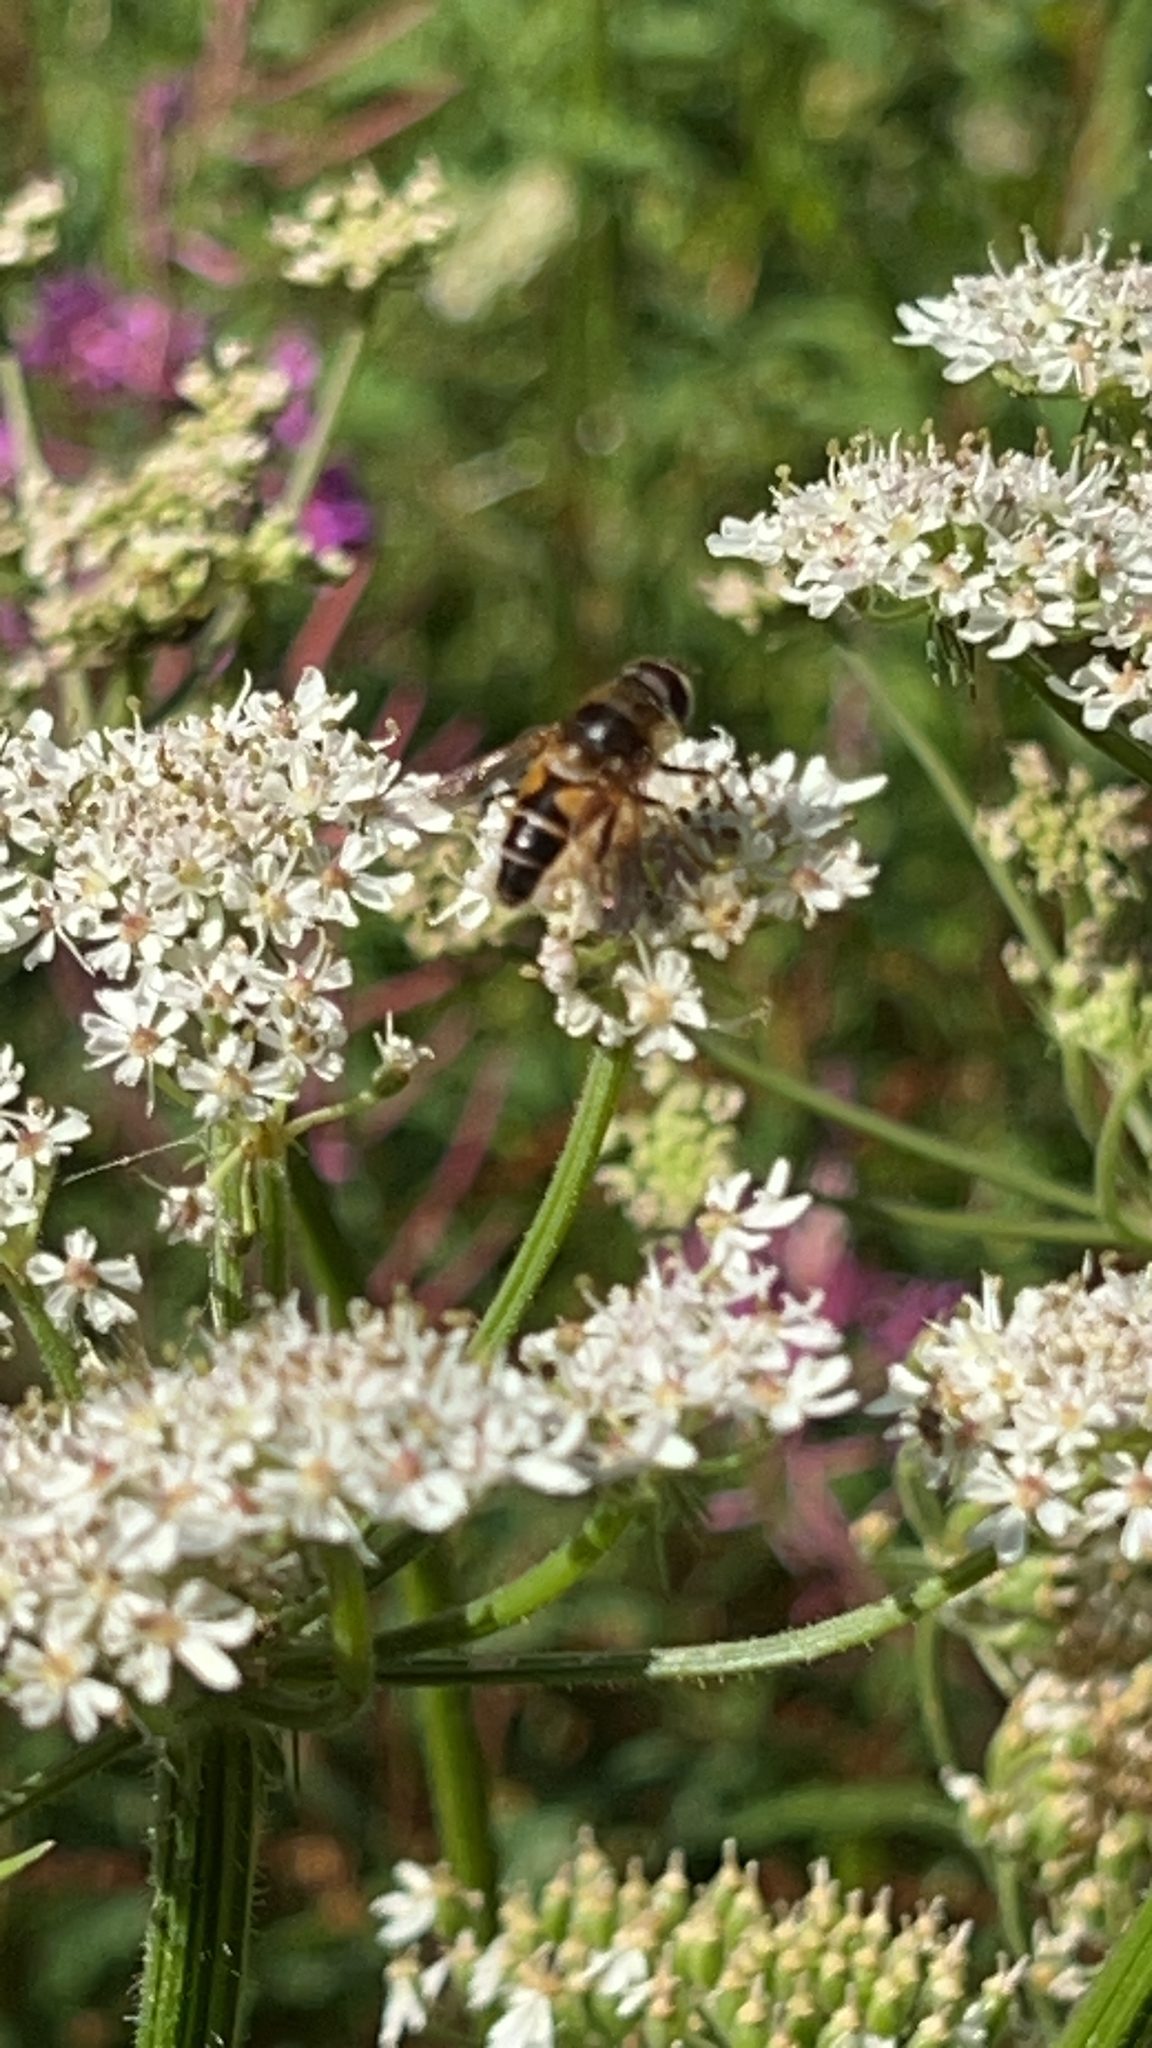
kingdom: Animalia
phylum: Arthropoda
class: Insecta
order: Diptera
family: Syrphidae
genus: Eristalis
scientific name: Eristalis pertinax
